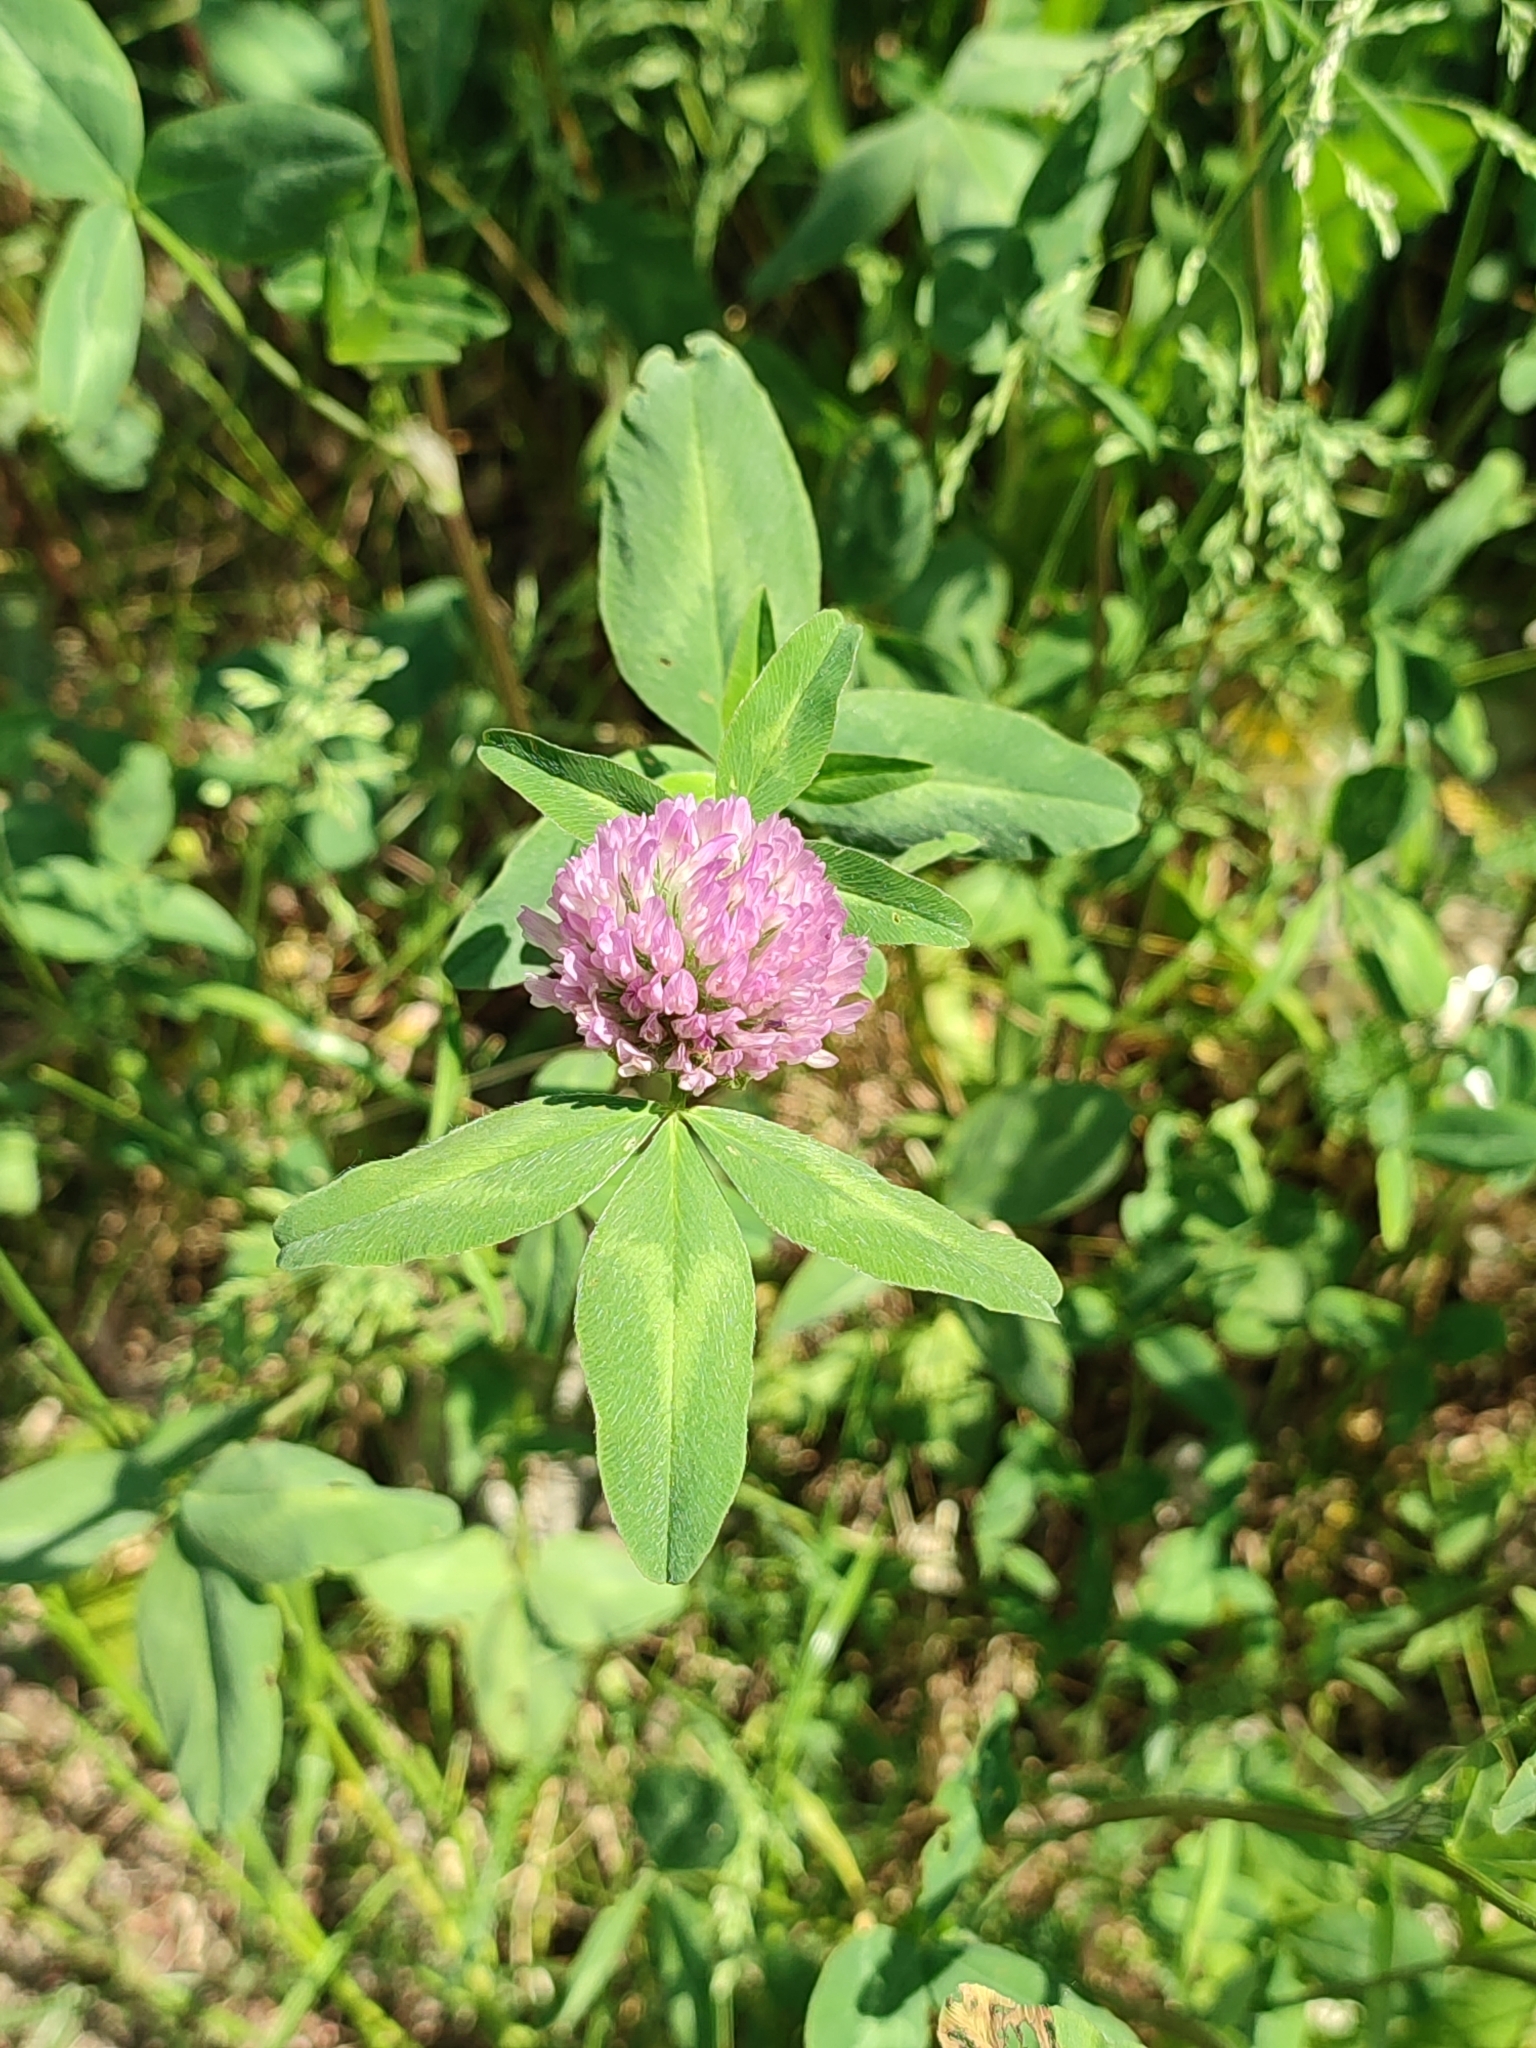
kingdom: Plantae
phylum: Tracheophyta
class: Magnoliopsida
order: Fabales
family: Fabaceae
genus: Trifolium
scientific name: Trifolium pratense
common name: Red clover
